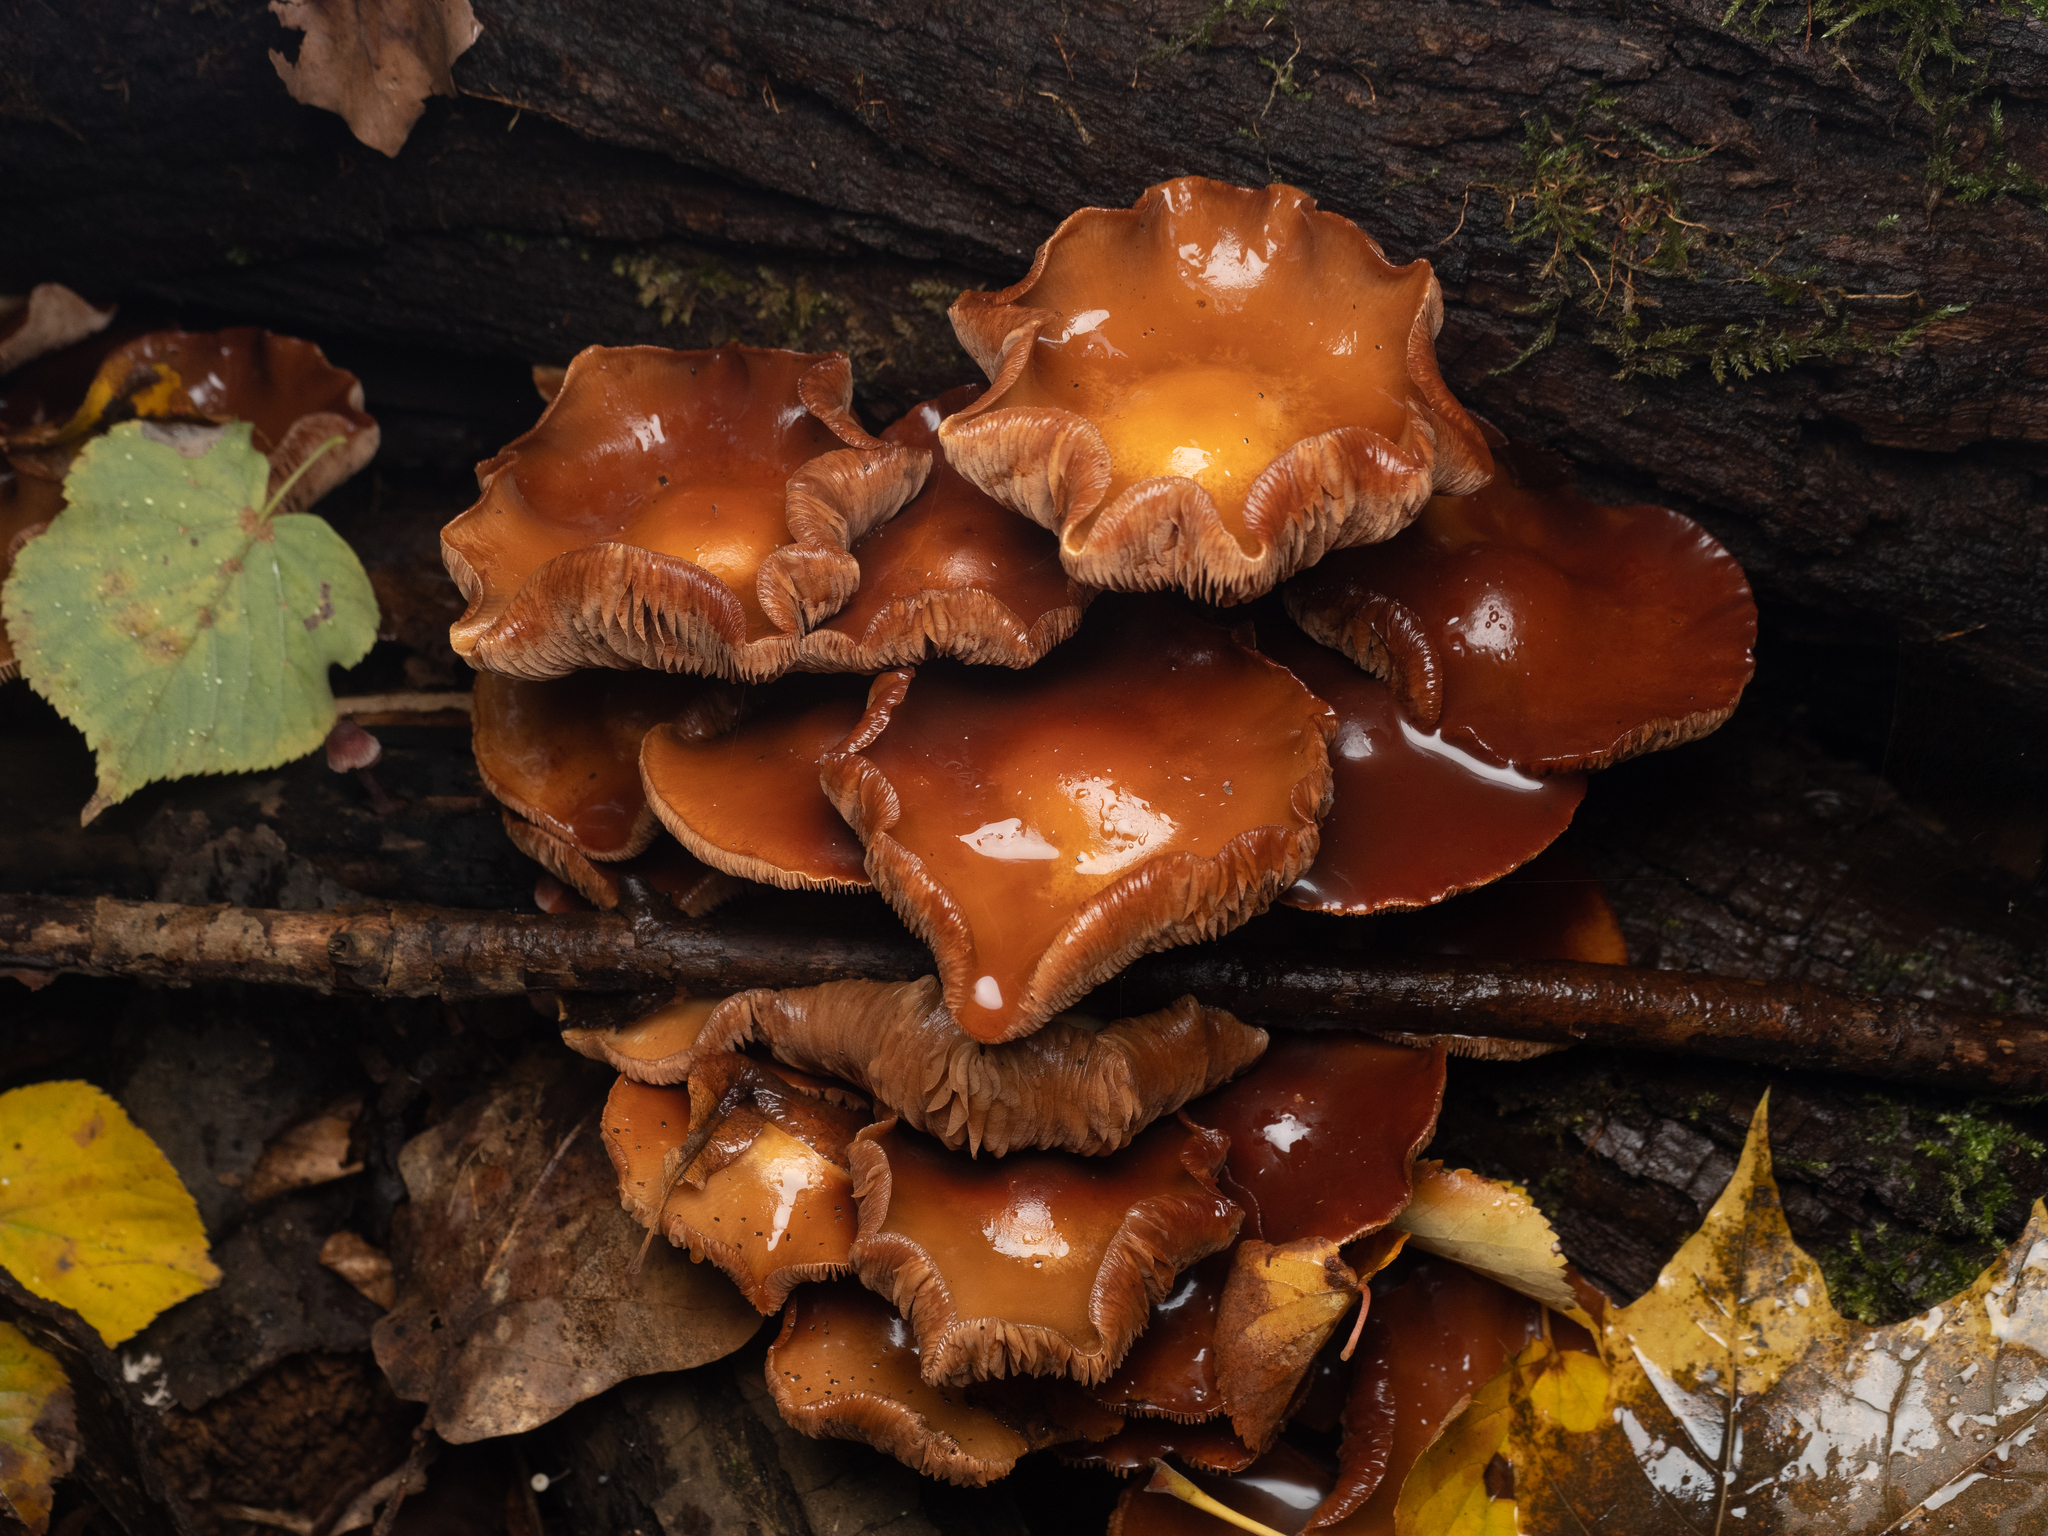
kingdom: Fungi
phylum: Basidiomycota
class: Agaricomycetes
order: Agaricales
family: Strophariaceae
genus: Kuehneromyces
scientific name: Kuehneromyces mutabilis
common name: Sheathed woodtuft
